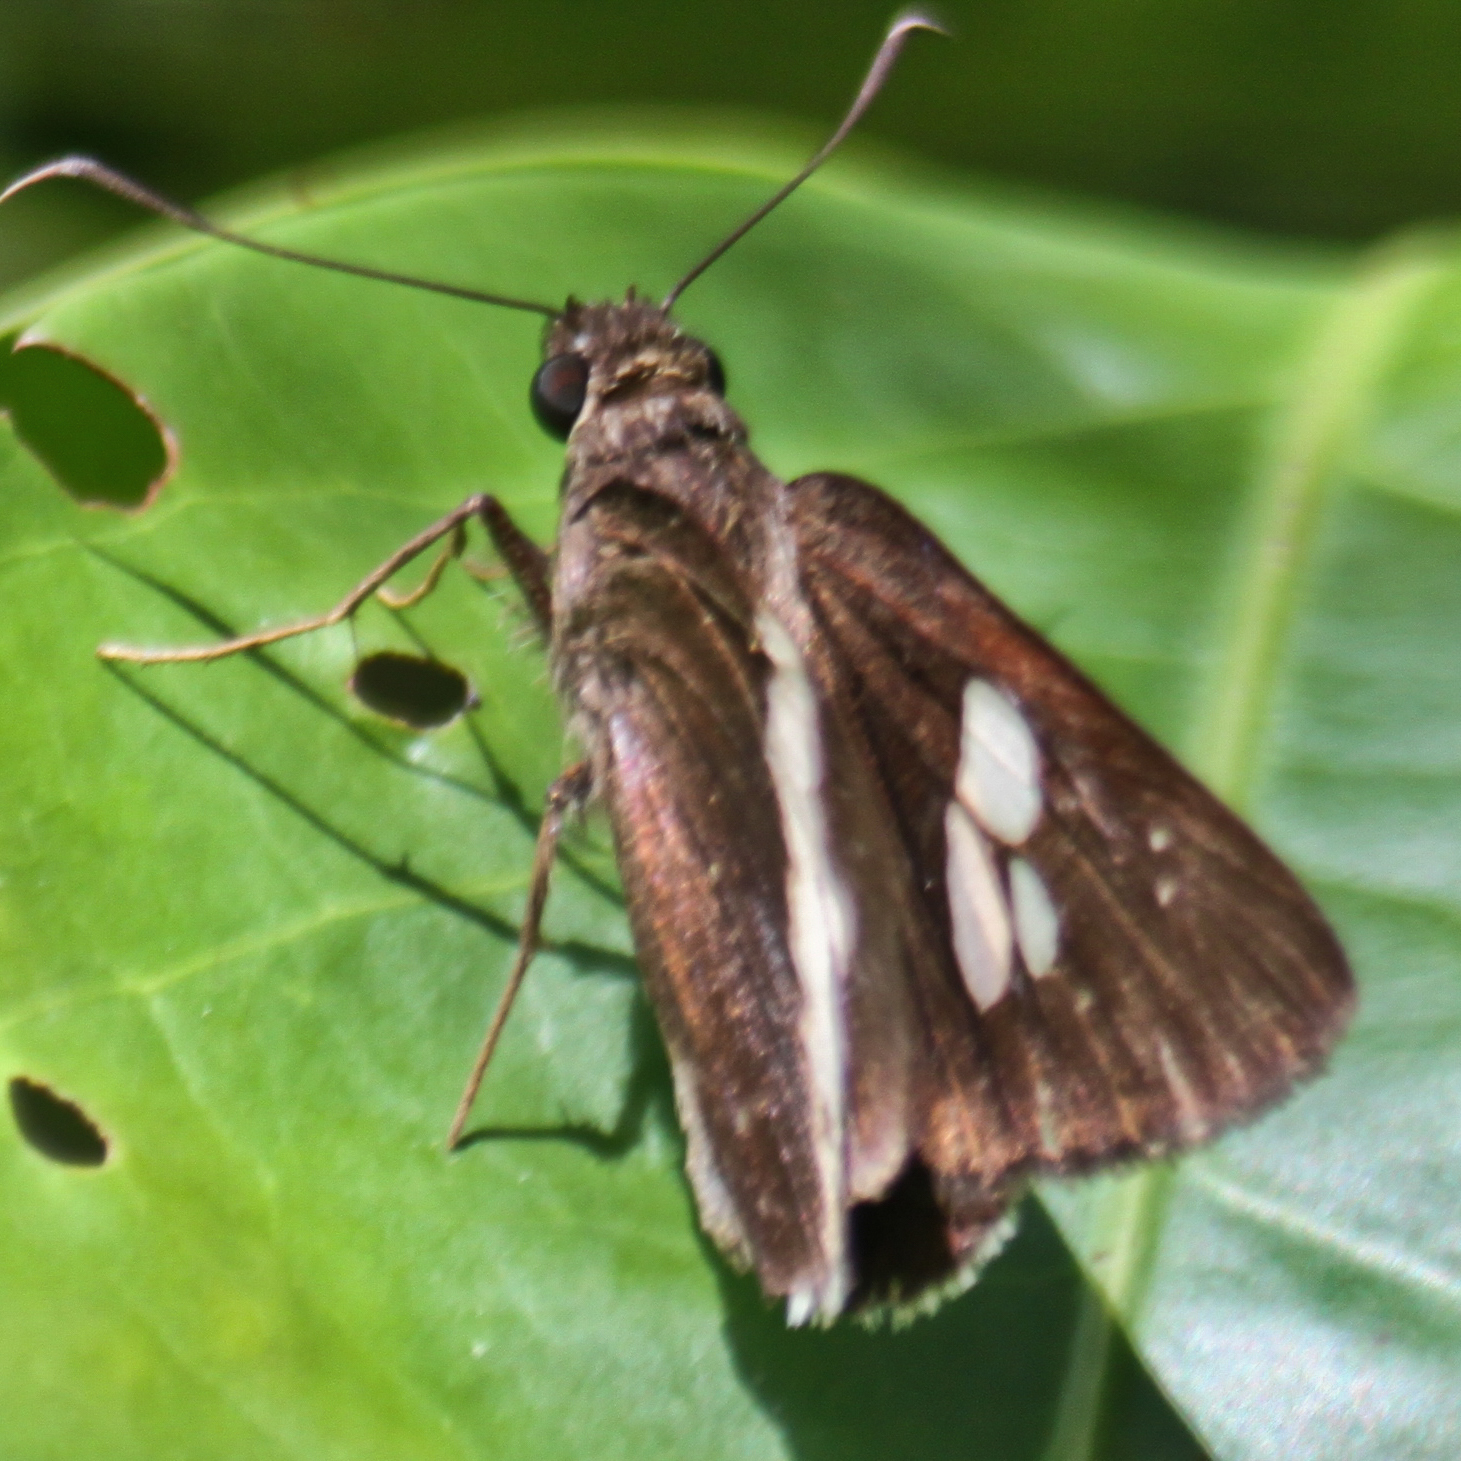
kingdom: Animalia
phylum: Arthropoda
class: Insecta
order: Lepidoptera
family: Hesperiidae
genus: Lotongus
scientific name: Lotongus calathus
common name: White-tipped palmer
